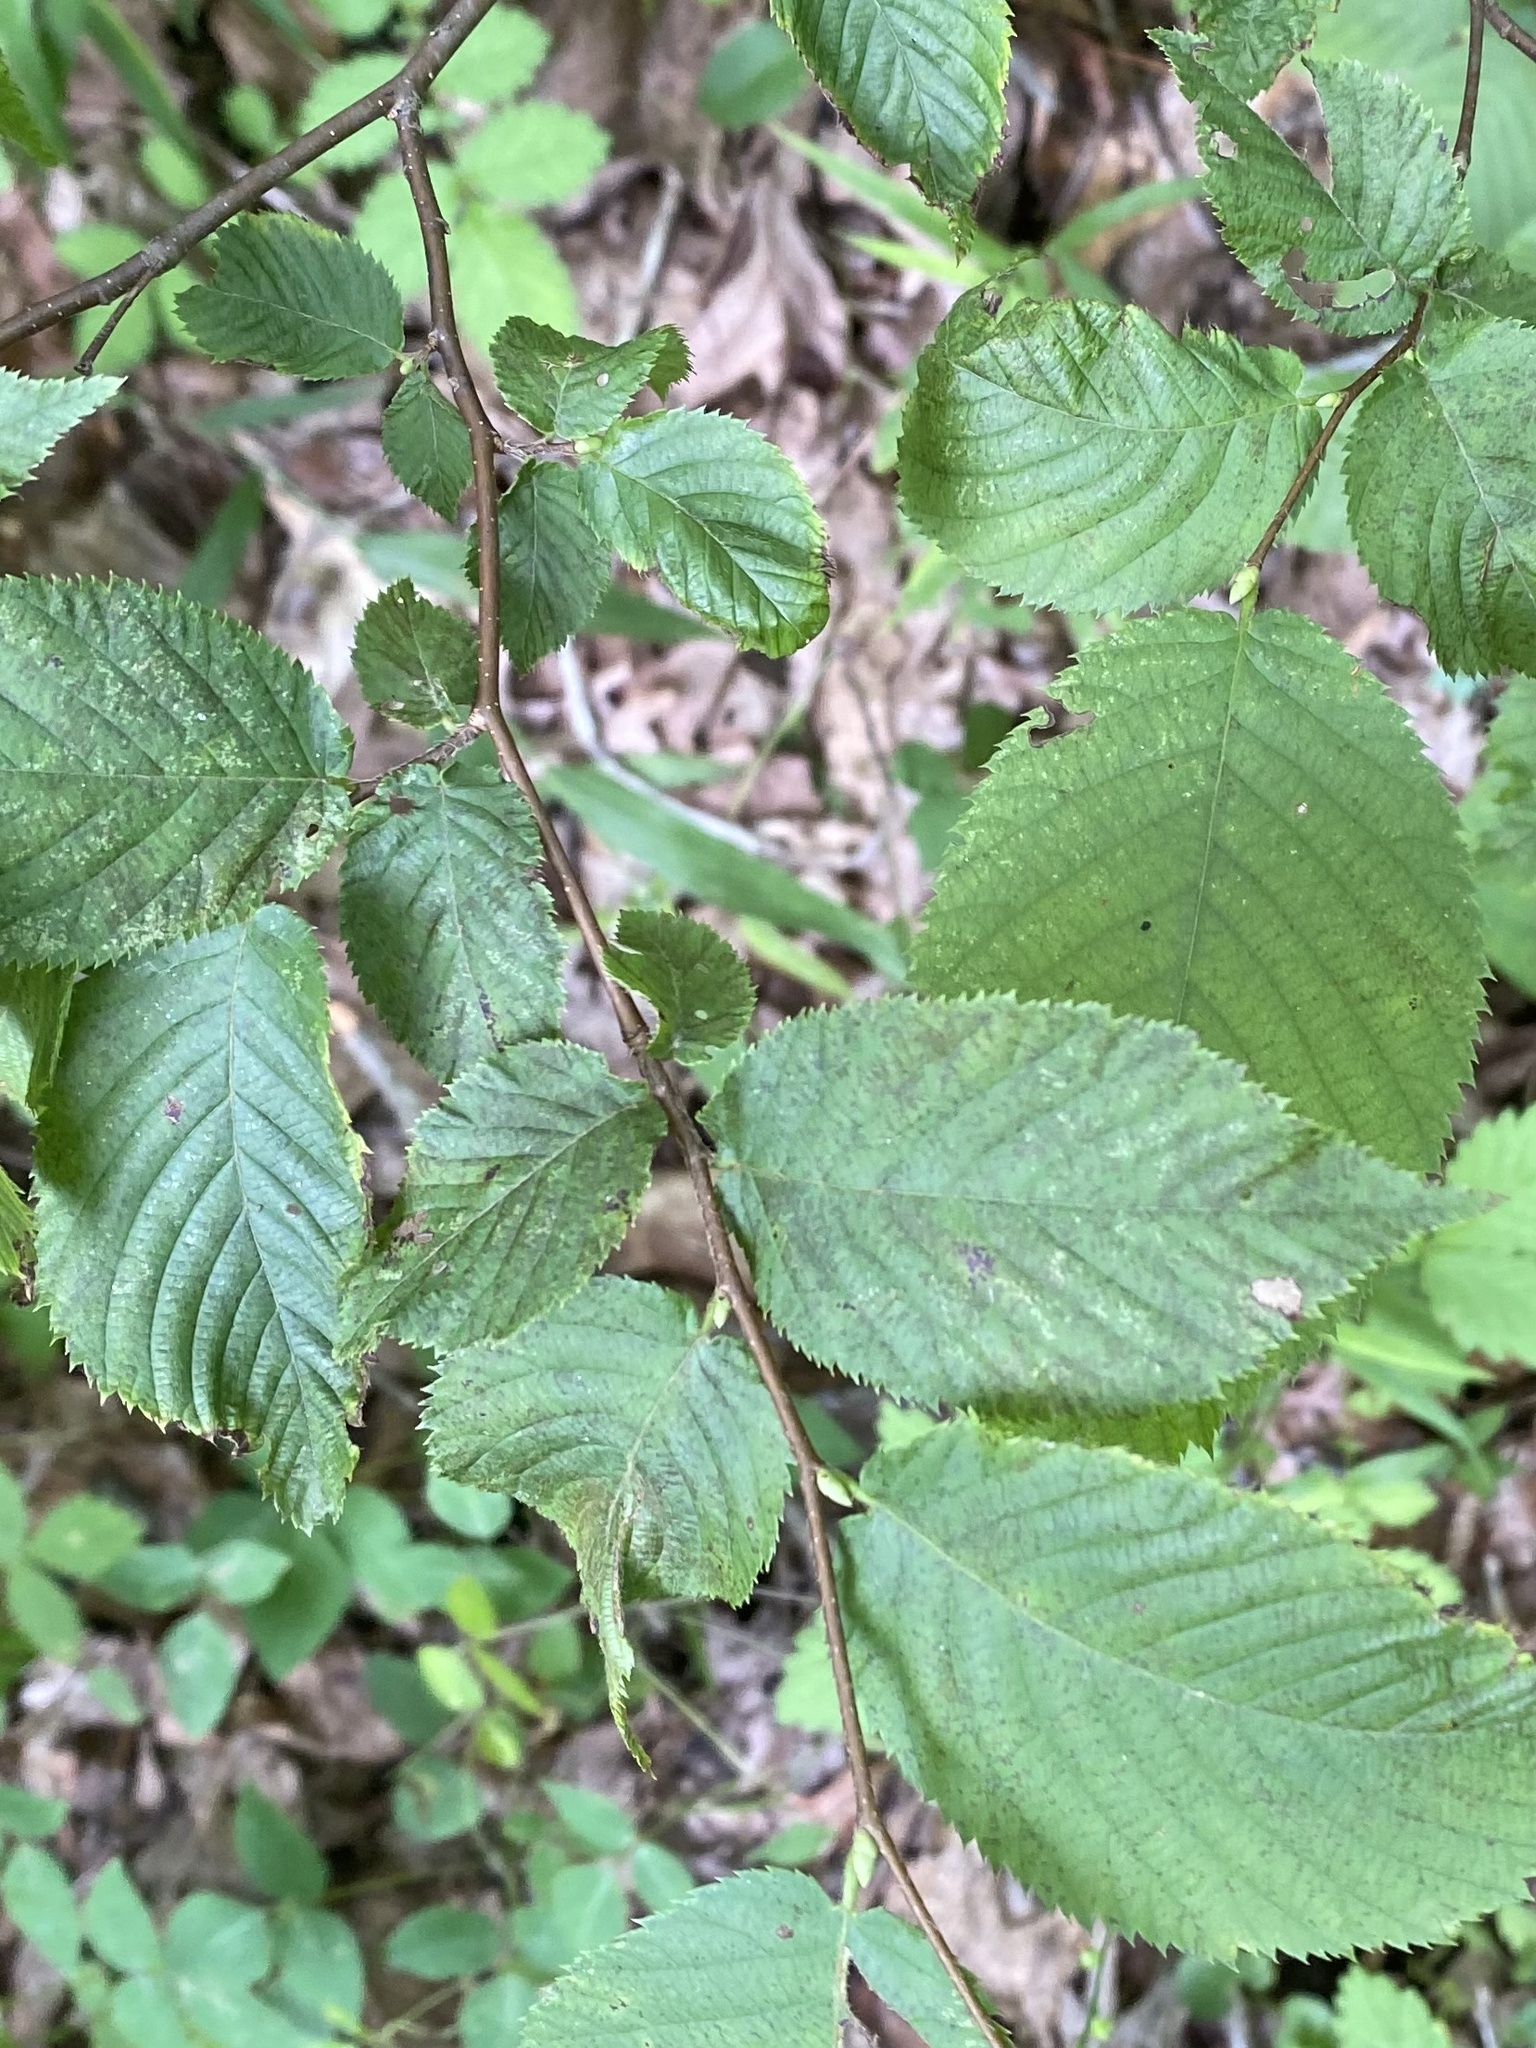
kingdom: Plantae
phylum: Tracheophyta
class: Magnoliopsida
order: Fagales
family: Betulaceae
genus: Ostrya
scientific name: Ostrya virginiana
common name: Ironwood
